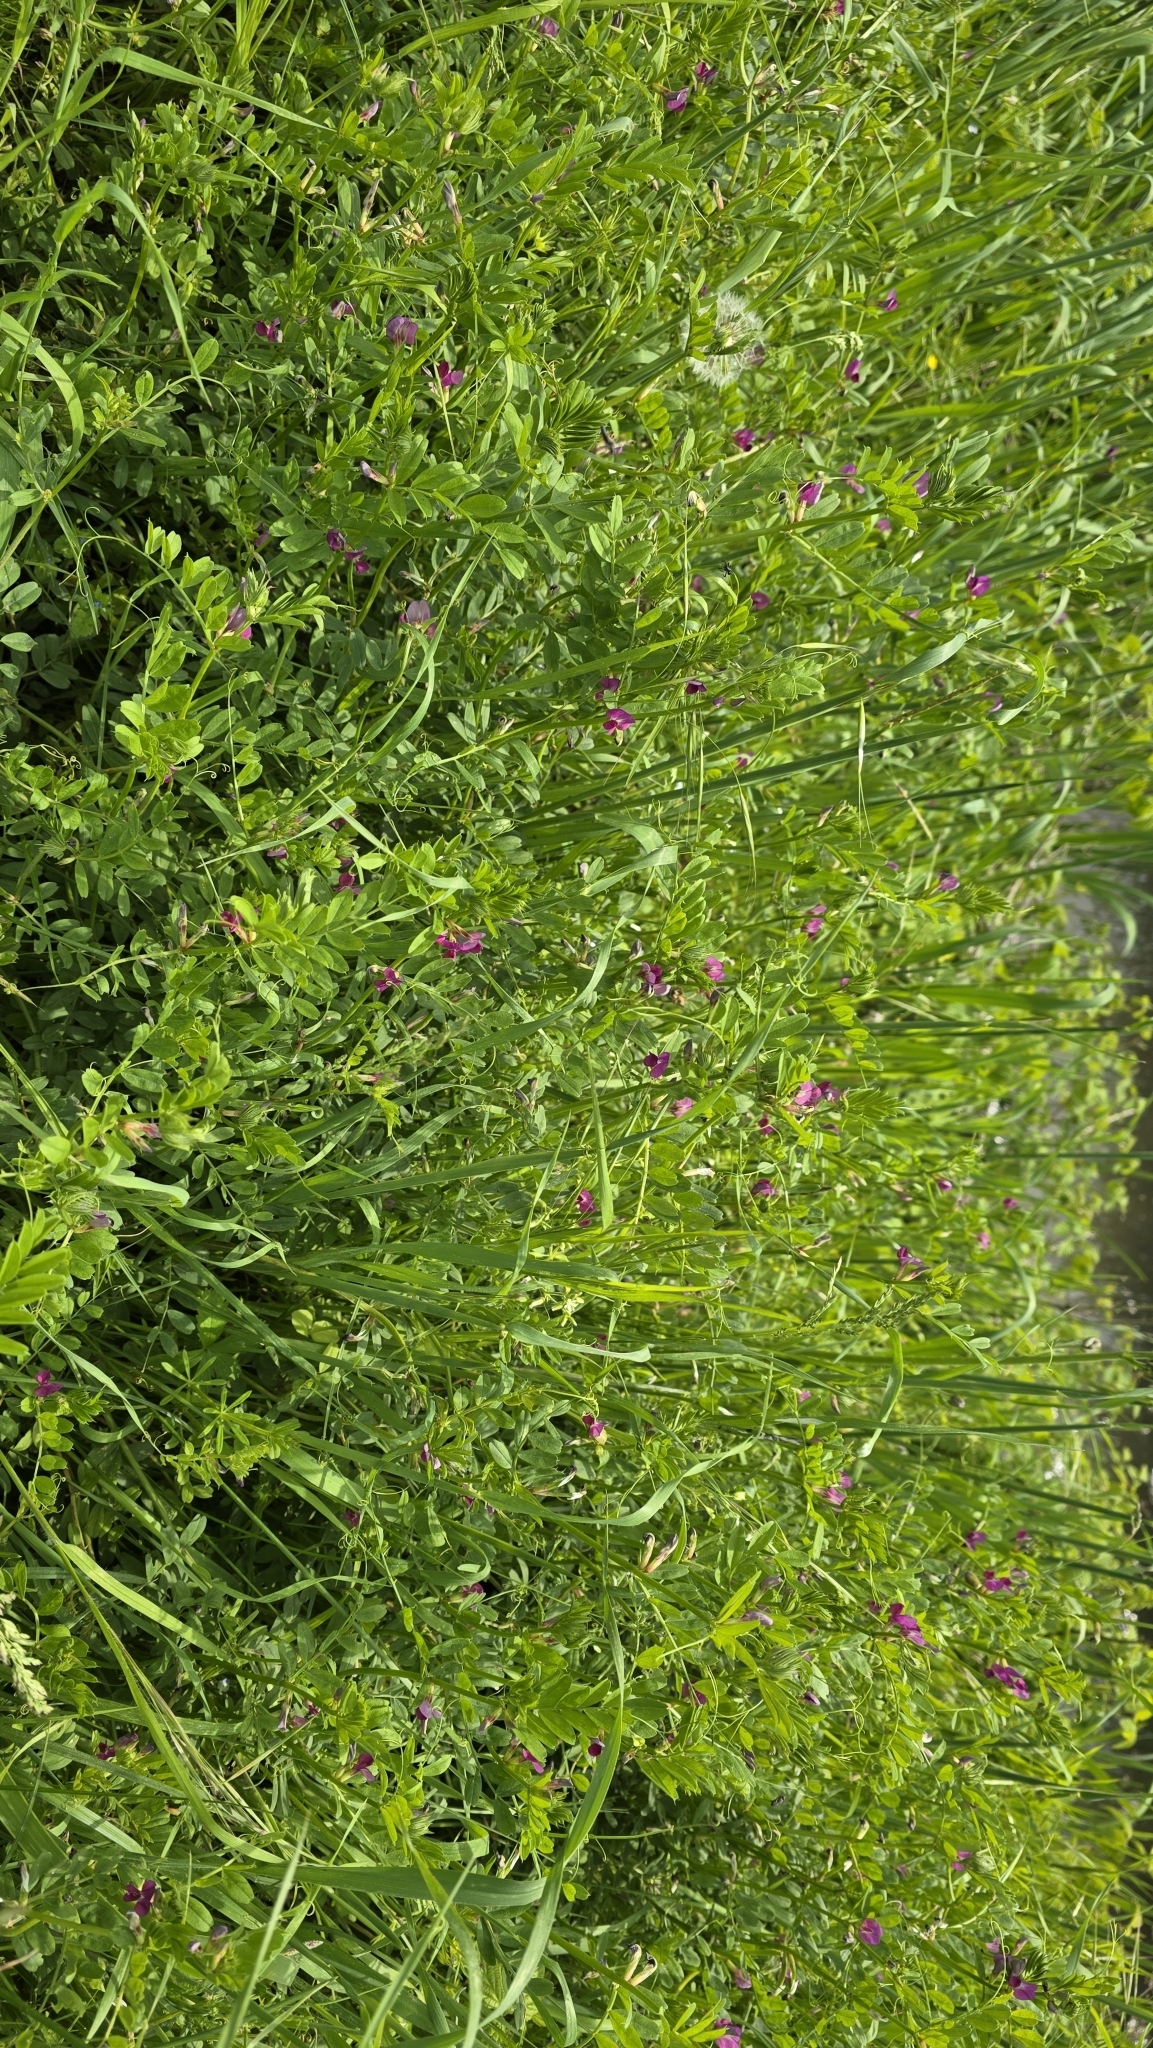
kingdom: Plantae
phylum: Tracheophyta
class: Magnoliopsida
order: Fabales
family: Fabaceae
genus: Vicia
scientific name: Vicia sativa
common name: Garden vetch
